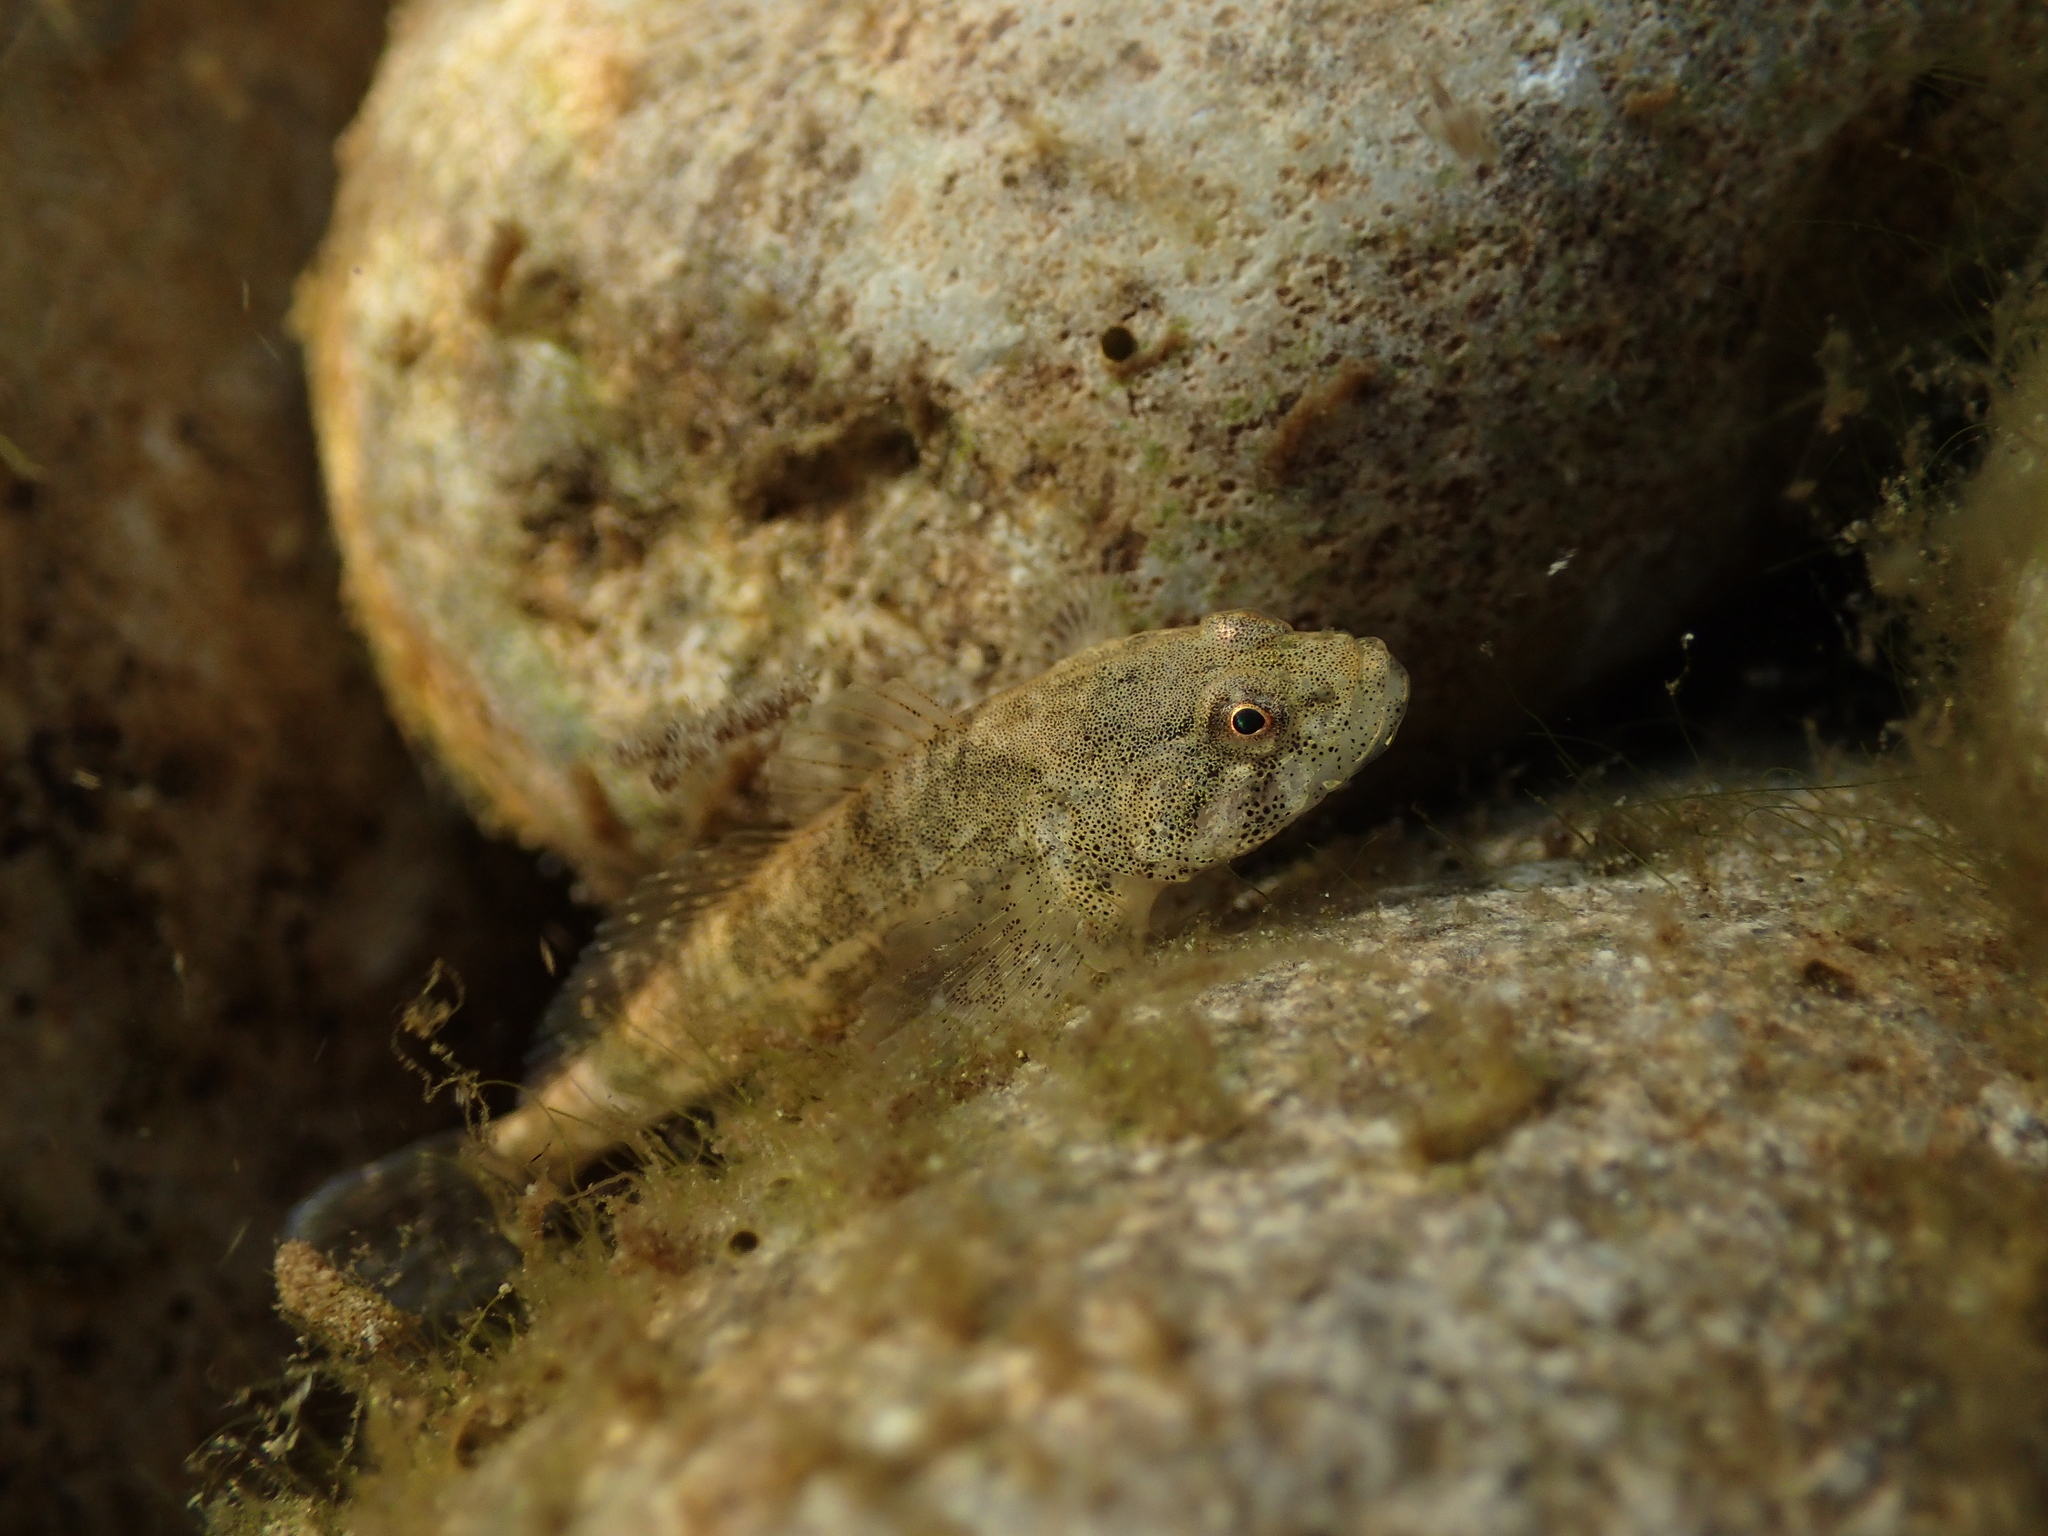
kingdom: Animalia
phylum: Chordata
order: Scorpaeniformes
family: Cottidae
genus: Cottus
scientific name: Cottus gobio
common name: Bullhead
